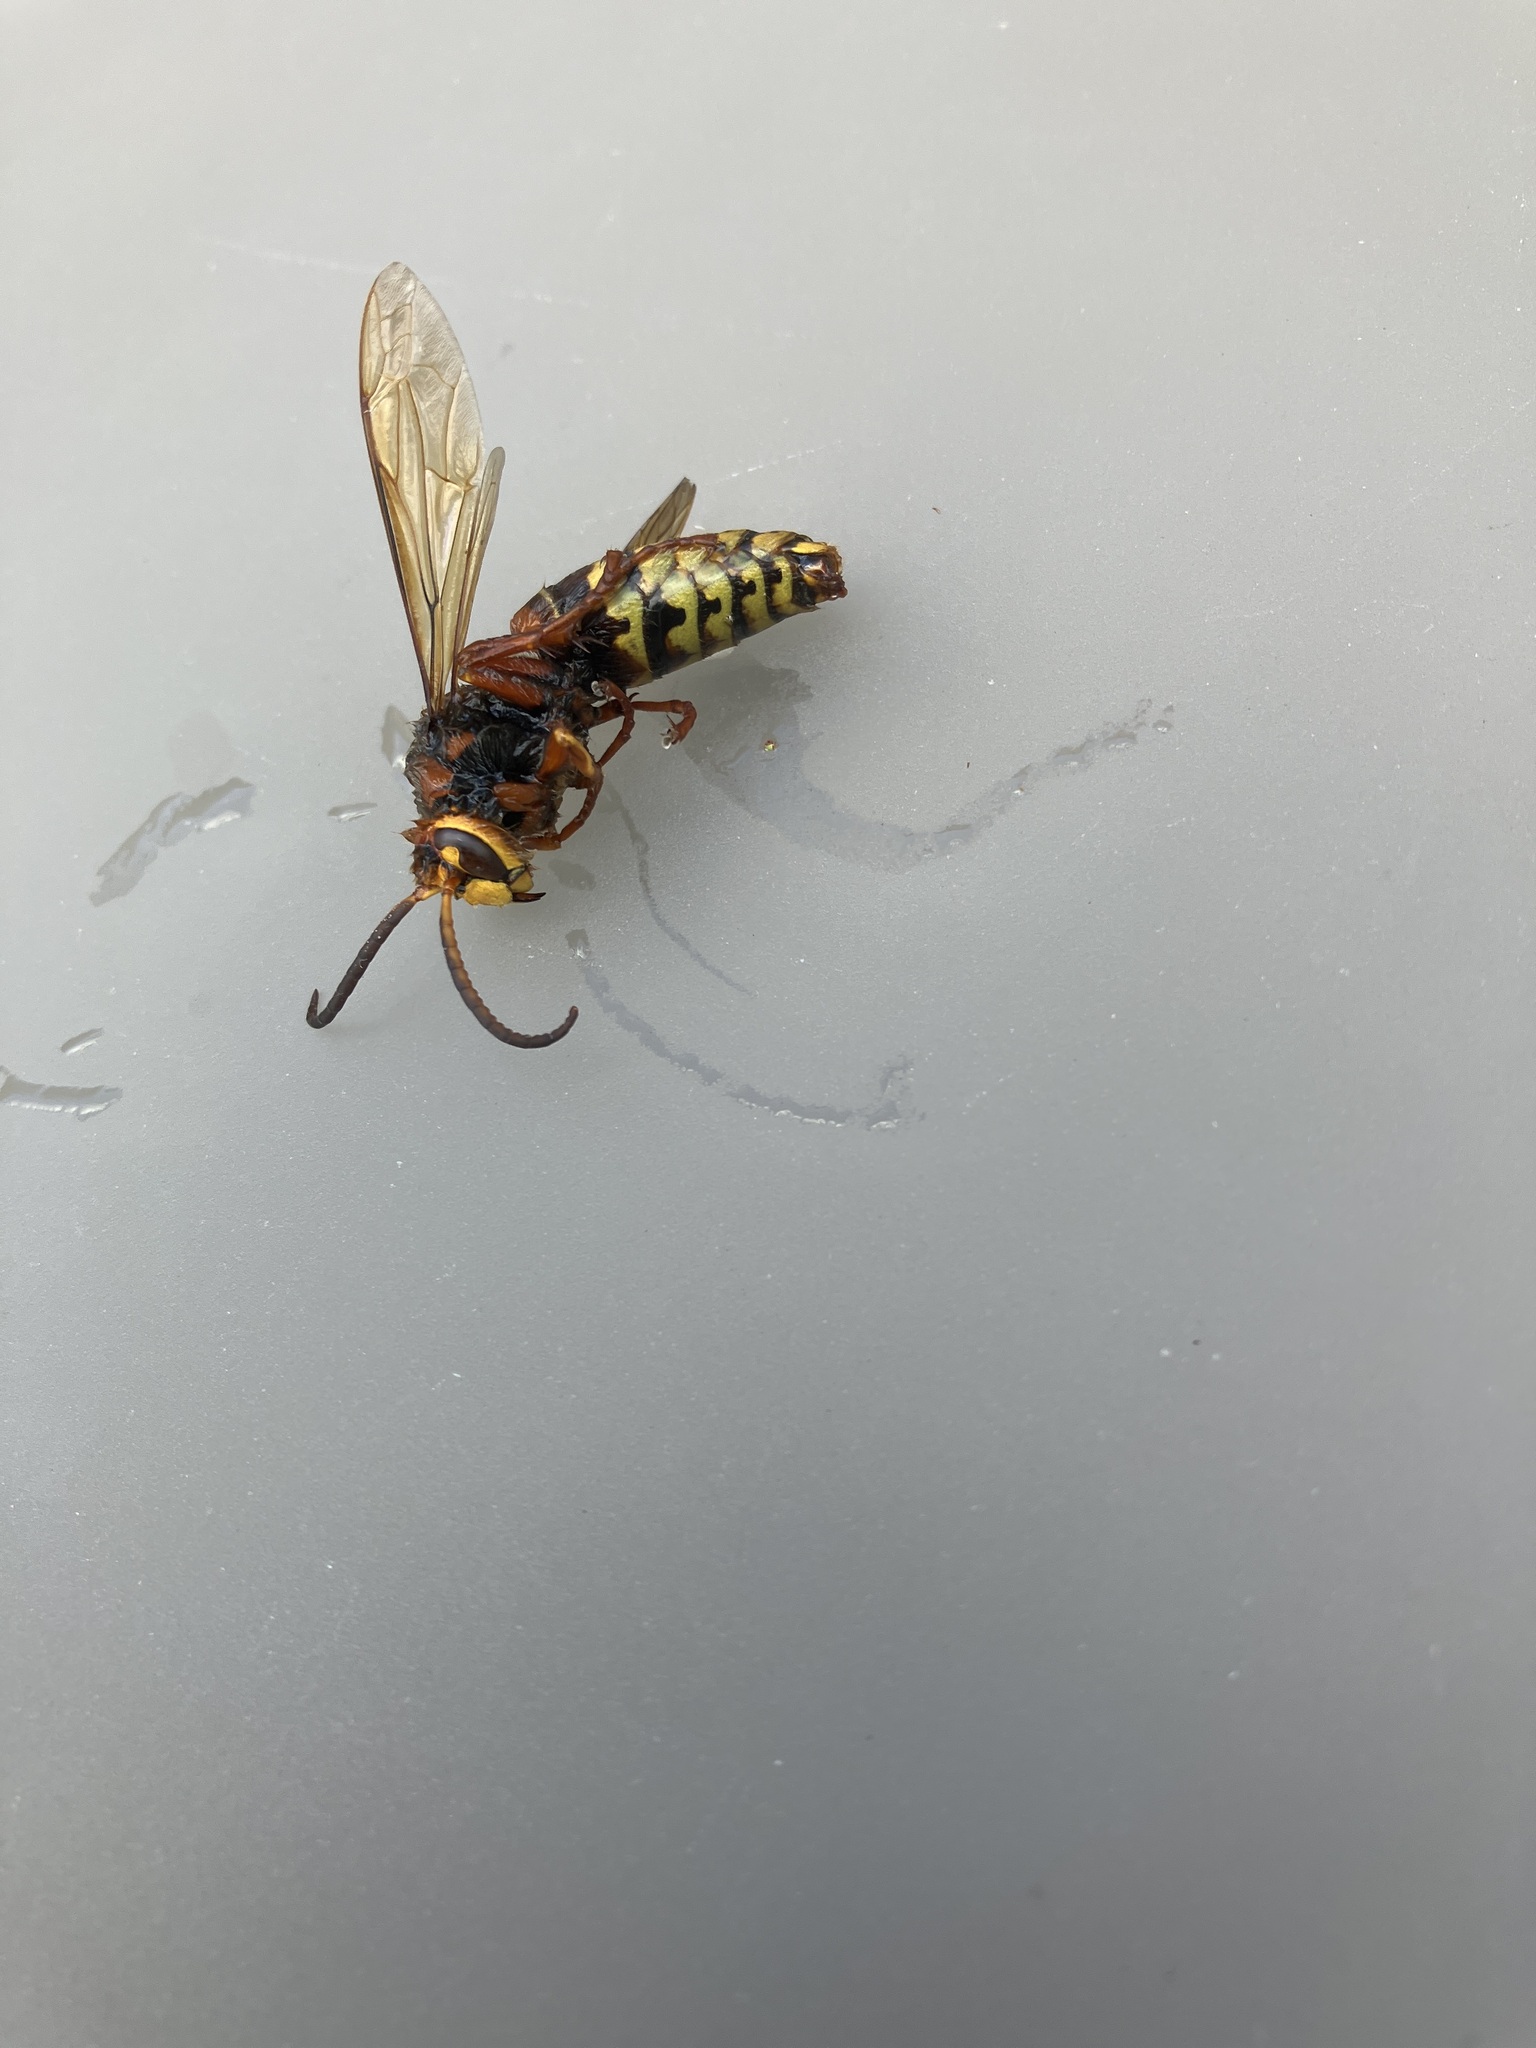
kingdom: Animalia
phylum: Arthropoda
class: Insecta
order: Hymenoptera
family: Vespidae
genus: Vespa
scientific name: Vespa crabro
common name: Hornet
